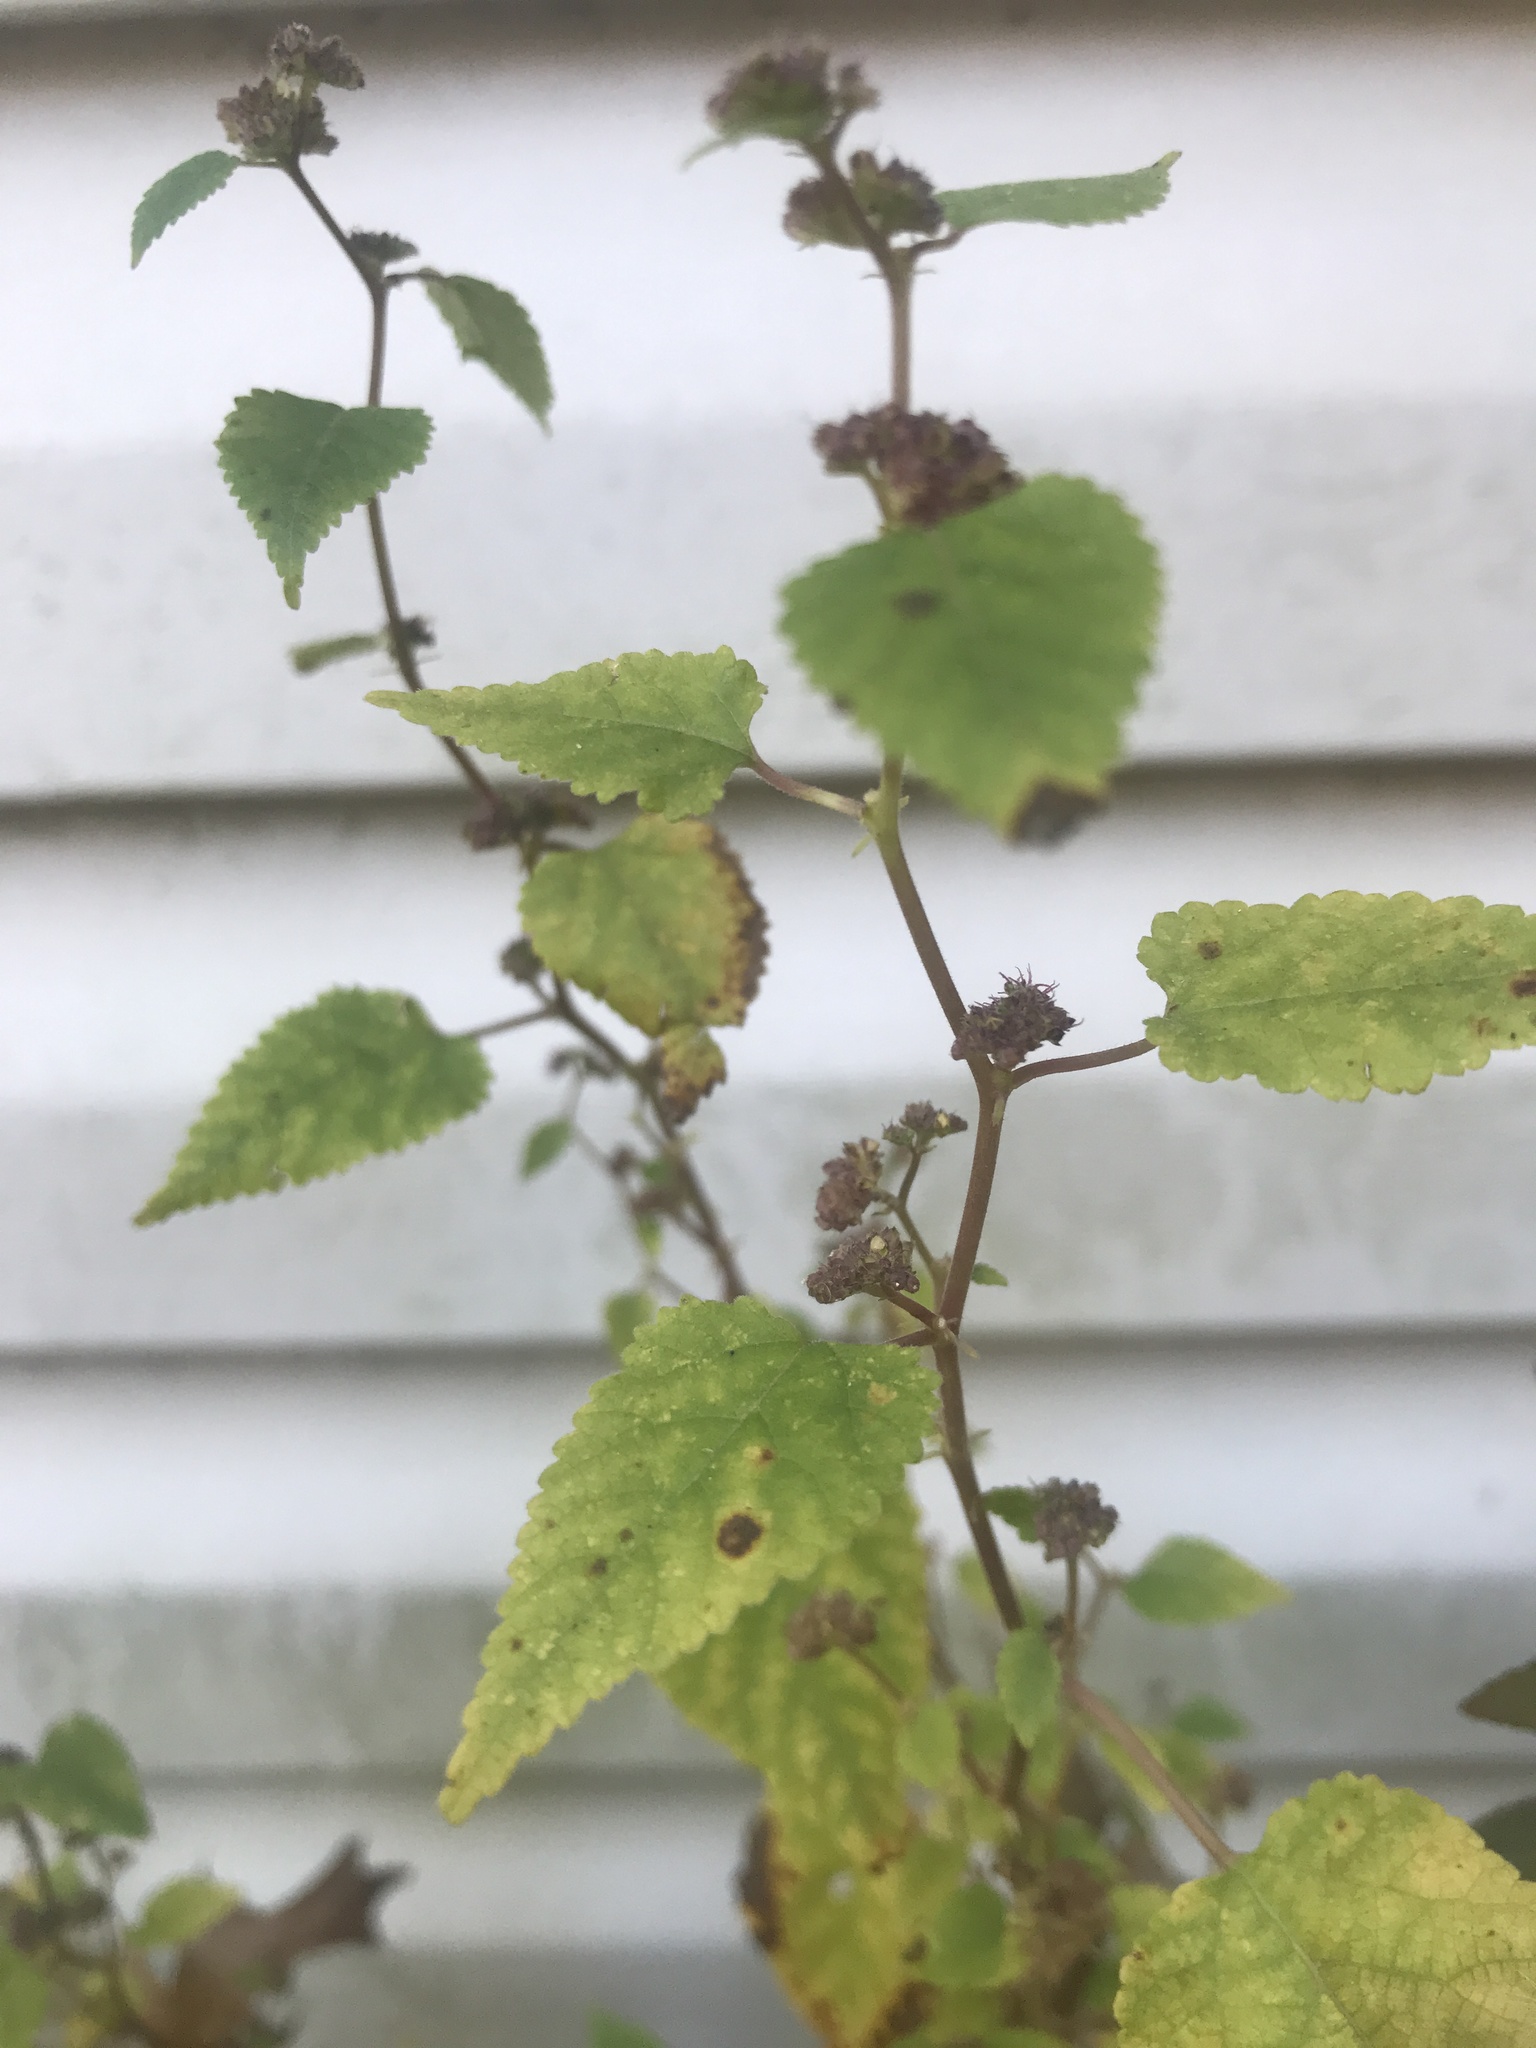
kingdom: Plantae
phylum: Tracheophyta
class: Magnoliopsida
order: Rosales
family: Moraceae
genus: Fatoua
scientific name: Fatoua villosa
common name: Hairy crabweed
